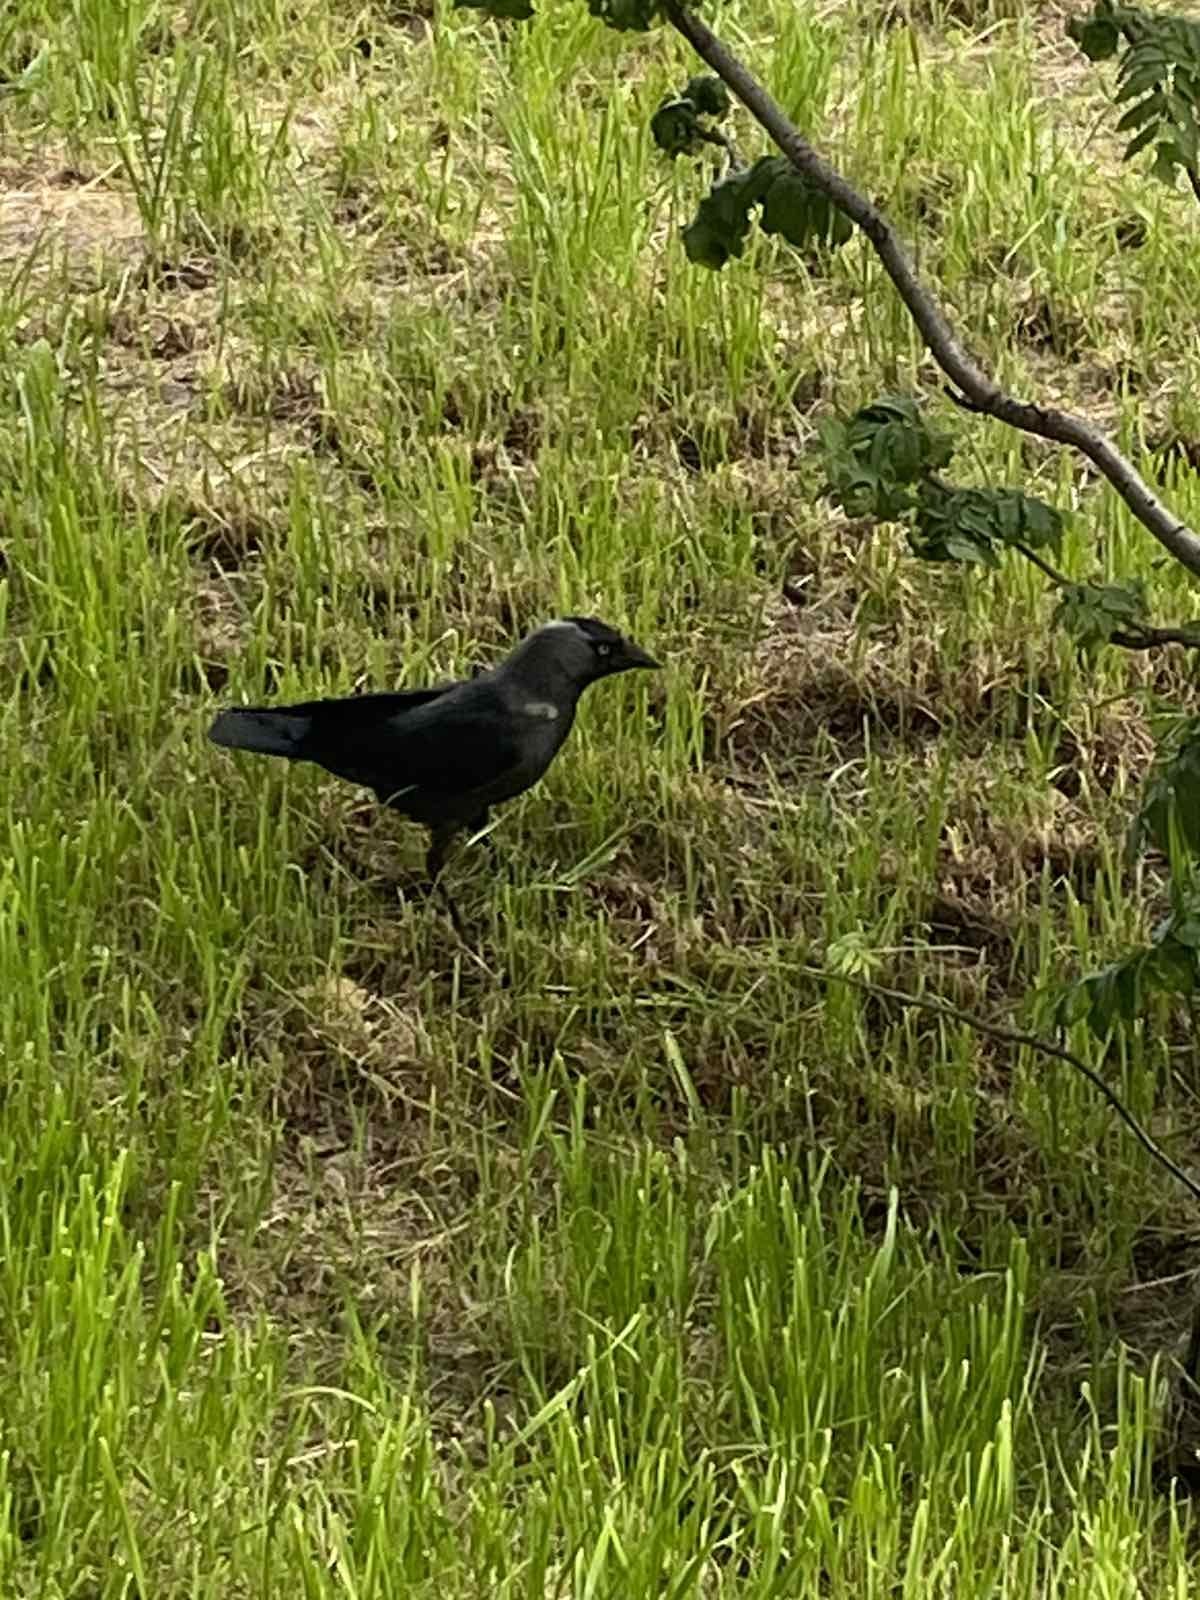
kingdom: Animalia
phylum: Chordata
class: Aves
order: Passeriformes
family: Corvidae
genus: Coloeus
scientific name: Coloeus monedula
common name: Western jackdaw
